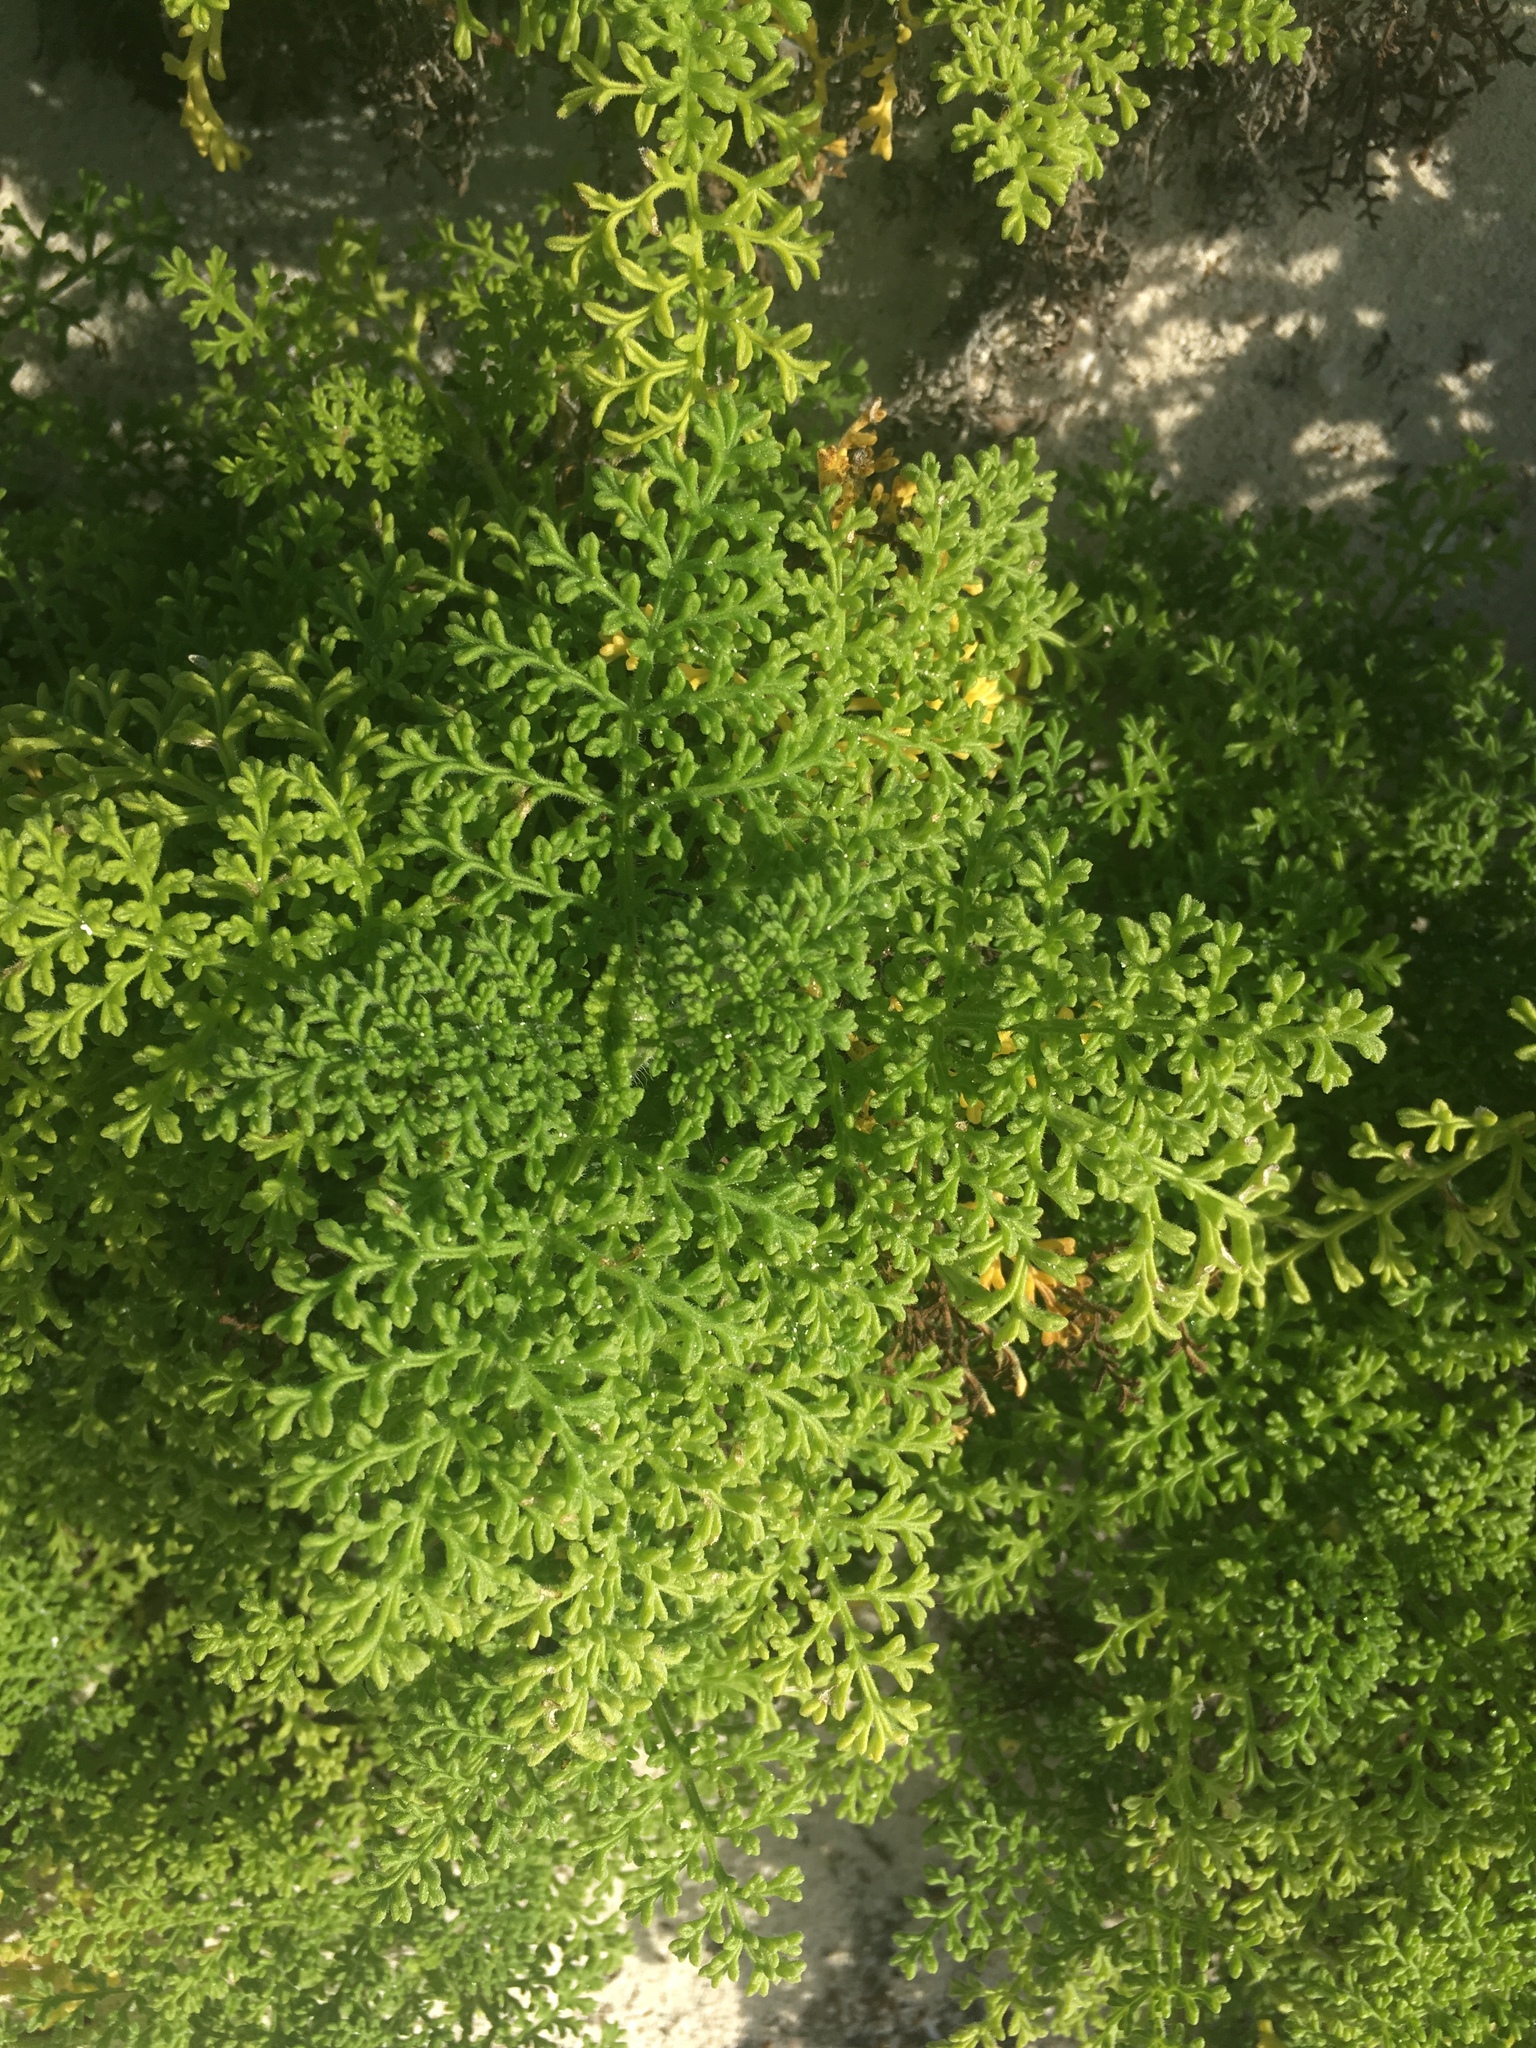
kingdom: Plantae
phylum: Tracheophyta
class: Magnoliopsida
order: Asterales
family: Asteraceae
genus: Ambrosia
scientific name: Ambrosia hispida
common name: Coastal ragweed
